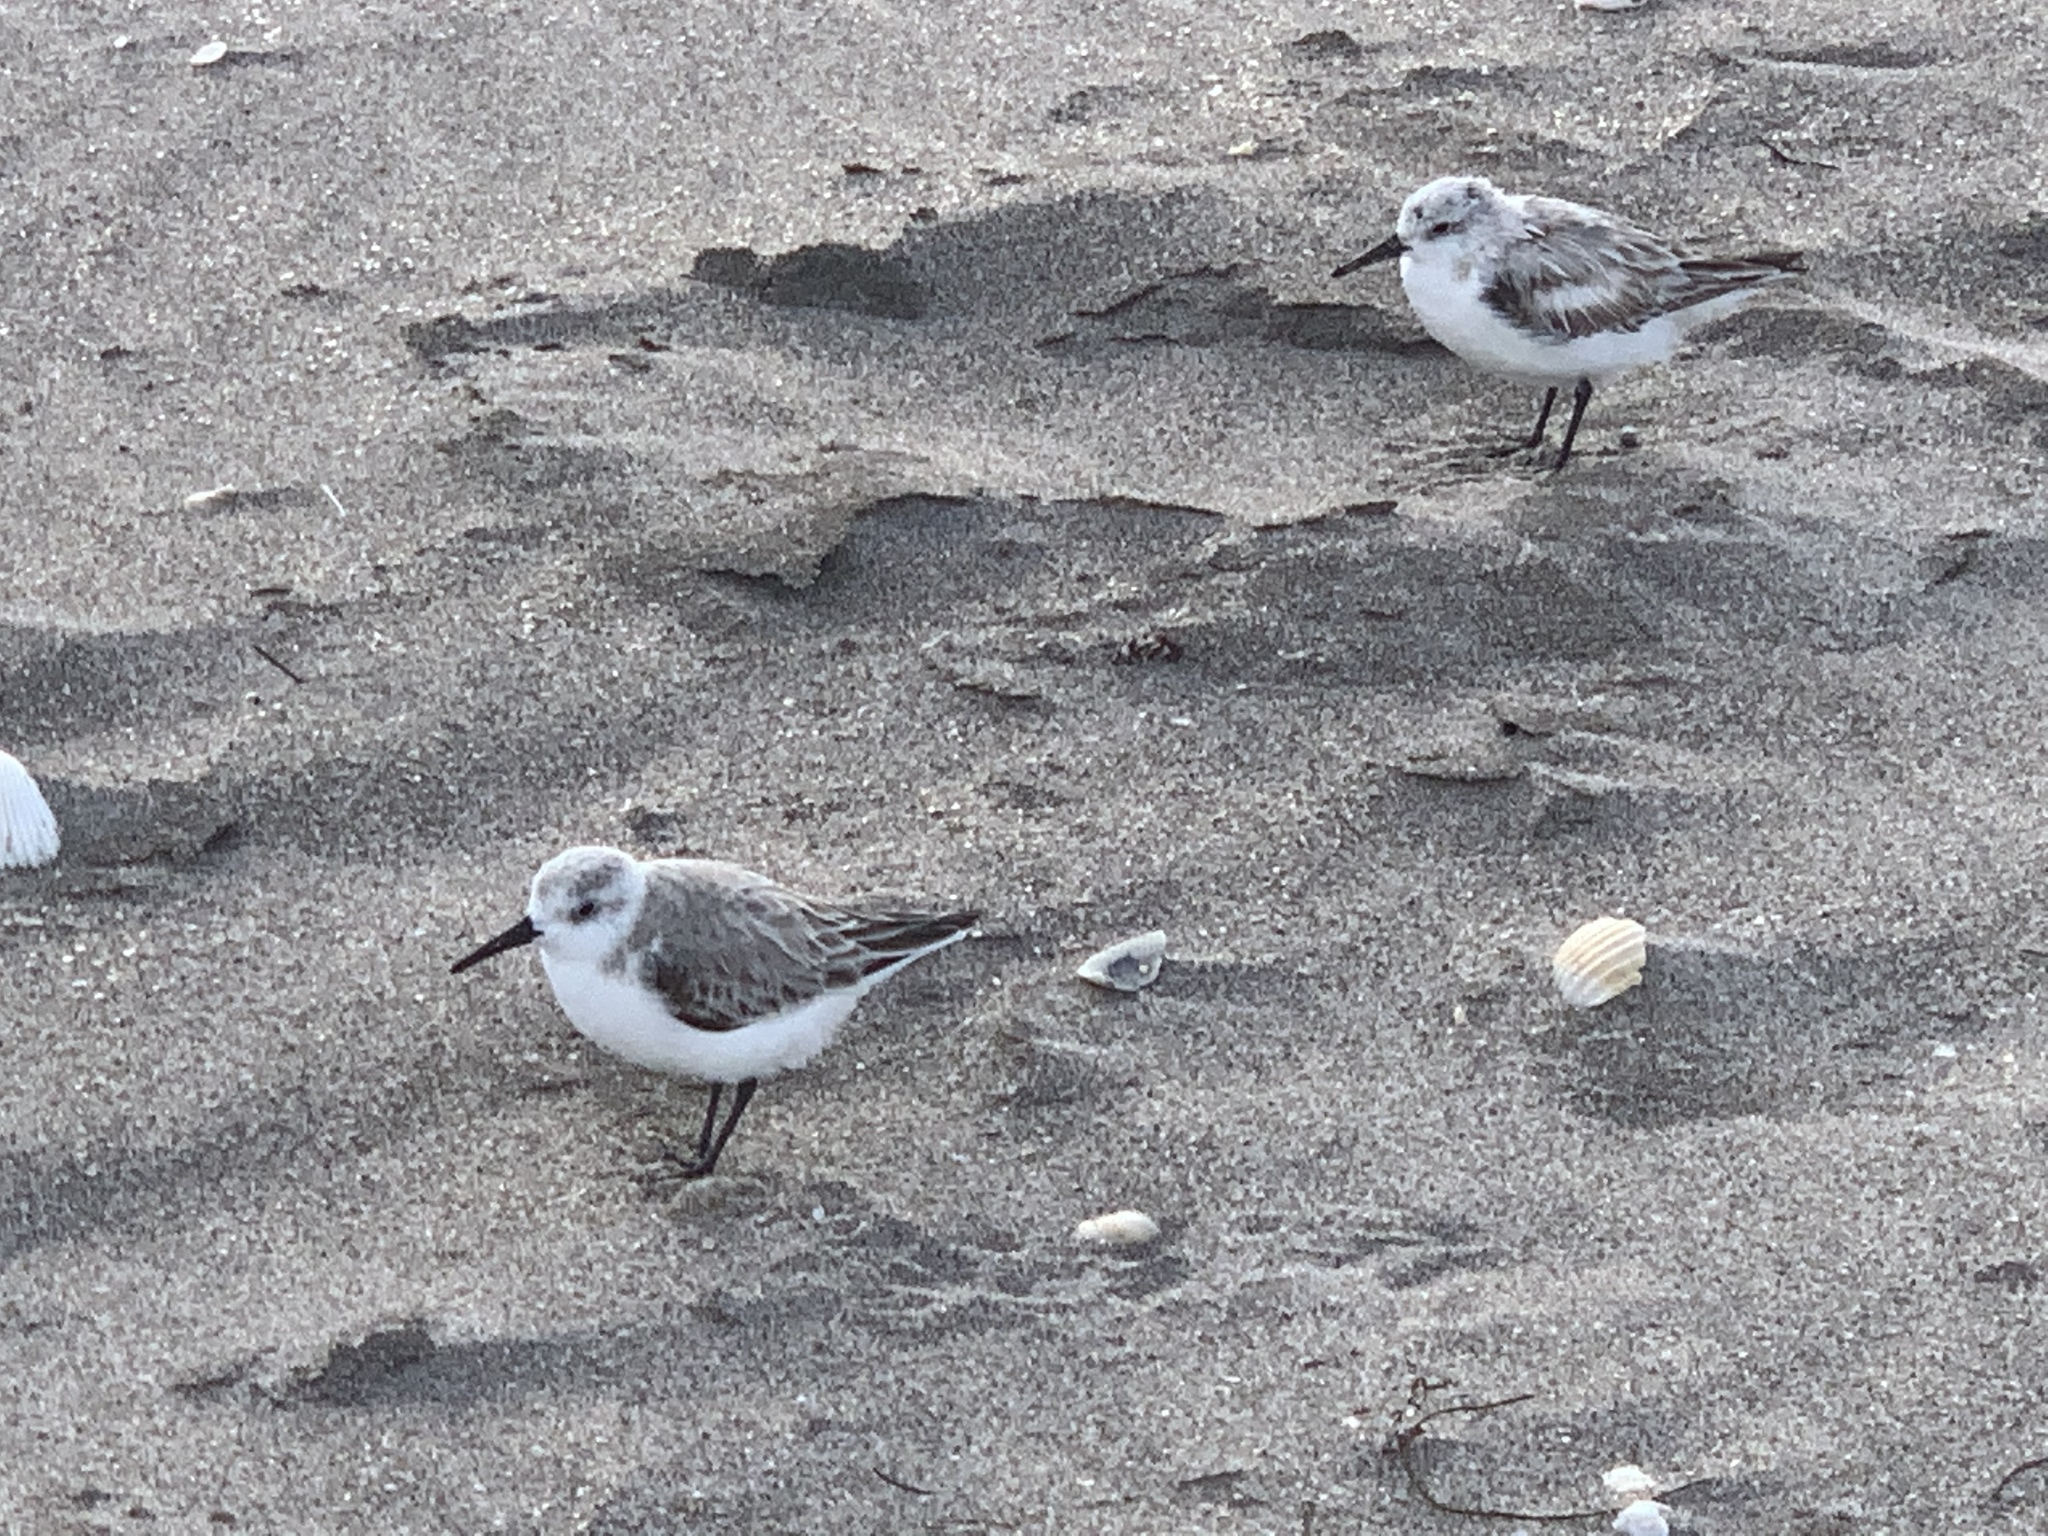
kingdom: Animalia
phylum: Chordata
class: Aves
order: Charadriiformes
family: Scolopacidae
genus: Calidris
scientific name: Calidris alba
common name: Sanderling
